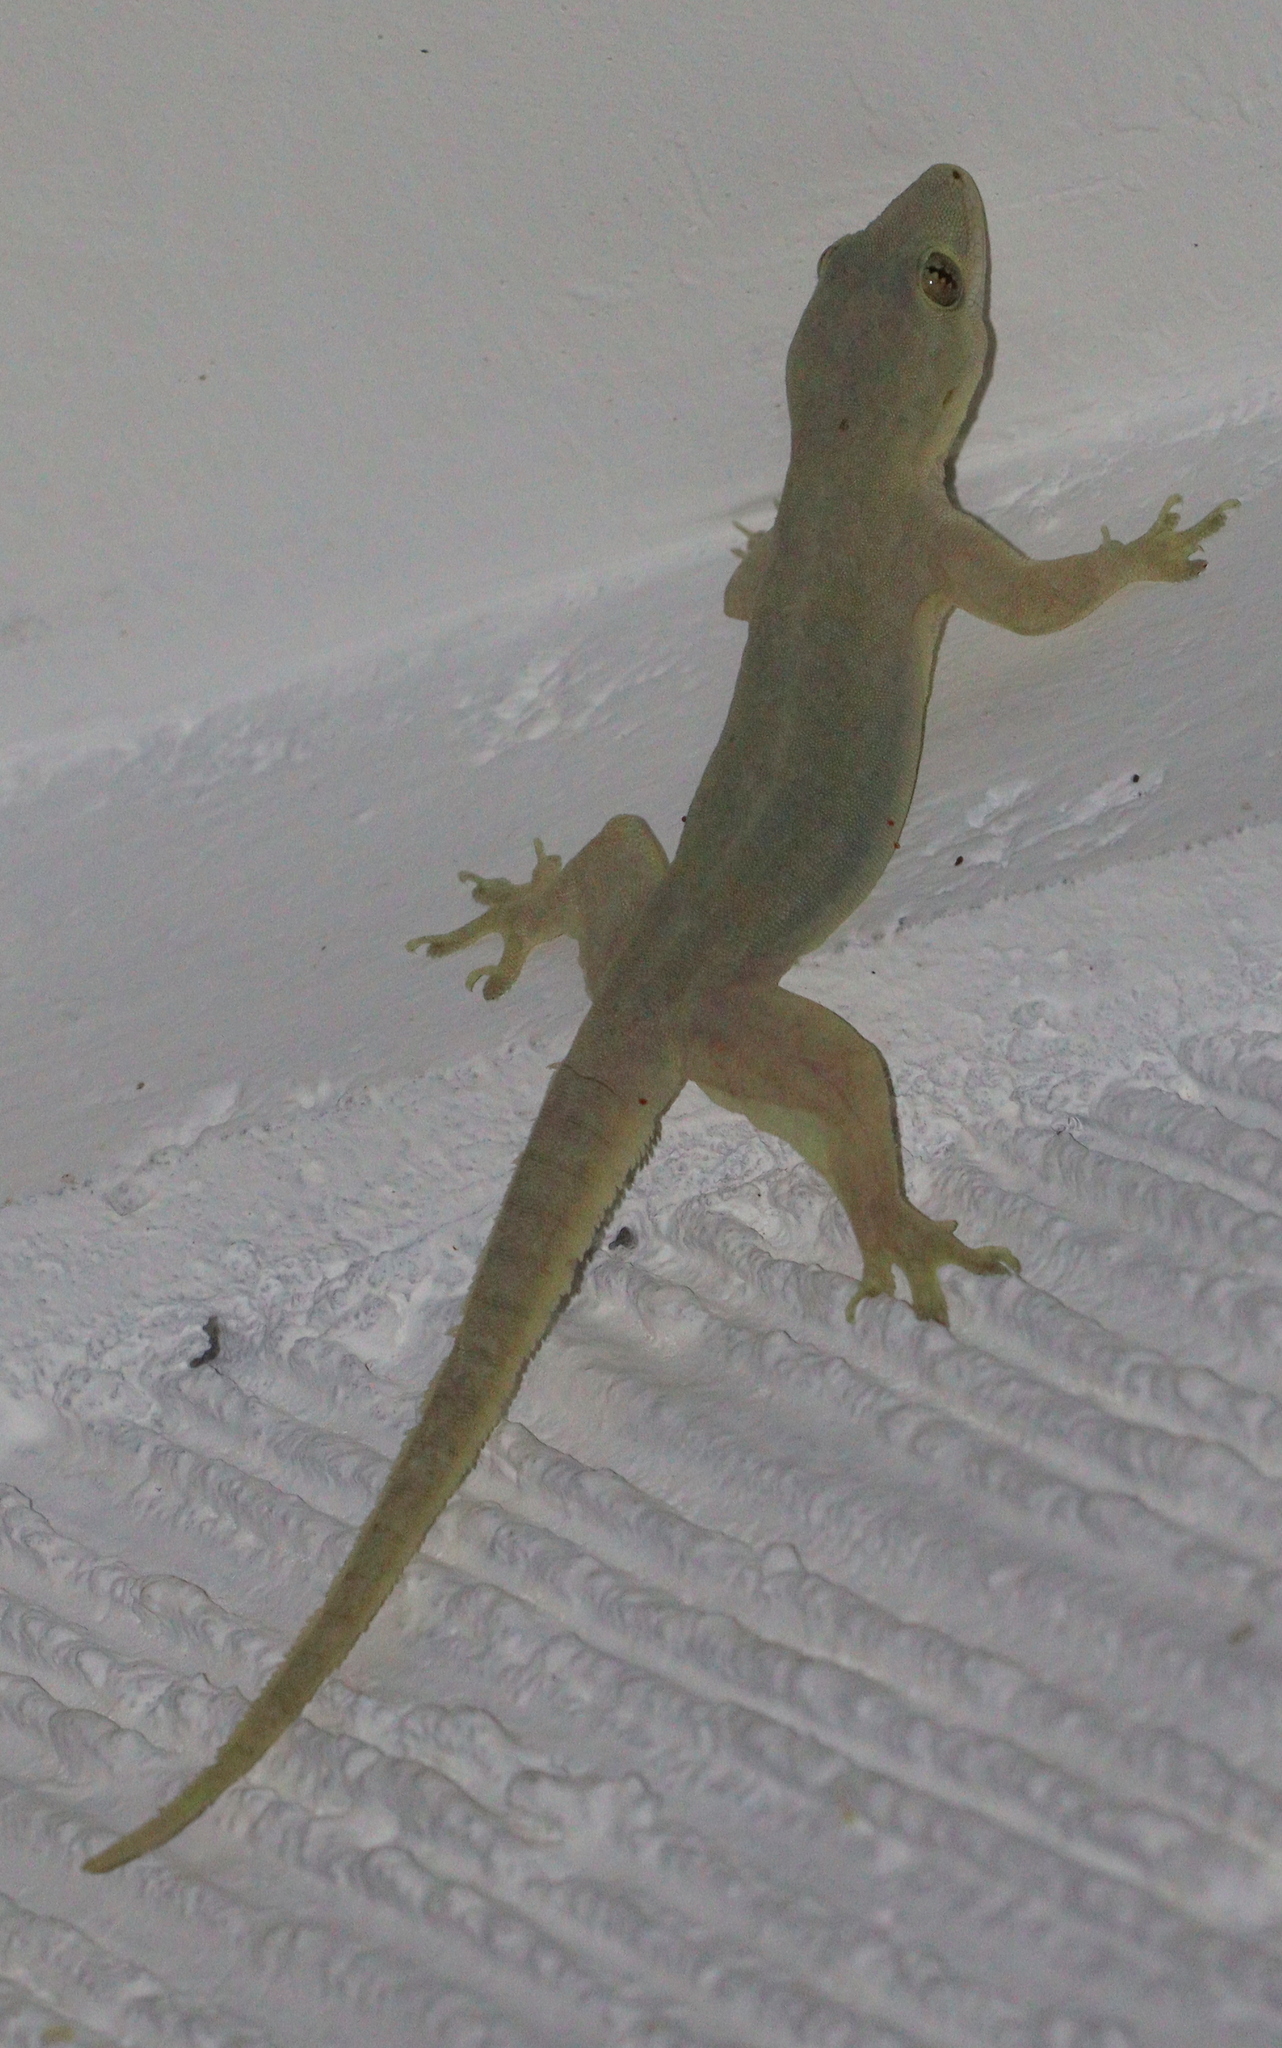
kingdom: Animalia
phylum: Chordata
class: Squamata
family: Gekkonidae
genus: Hemidactylus
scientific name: Hemidactylus platyurus
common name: Flat-tailed house gecko
